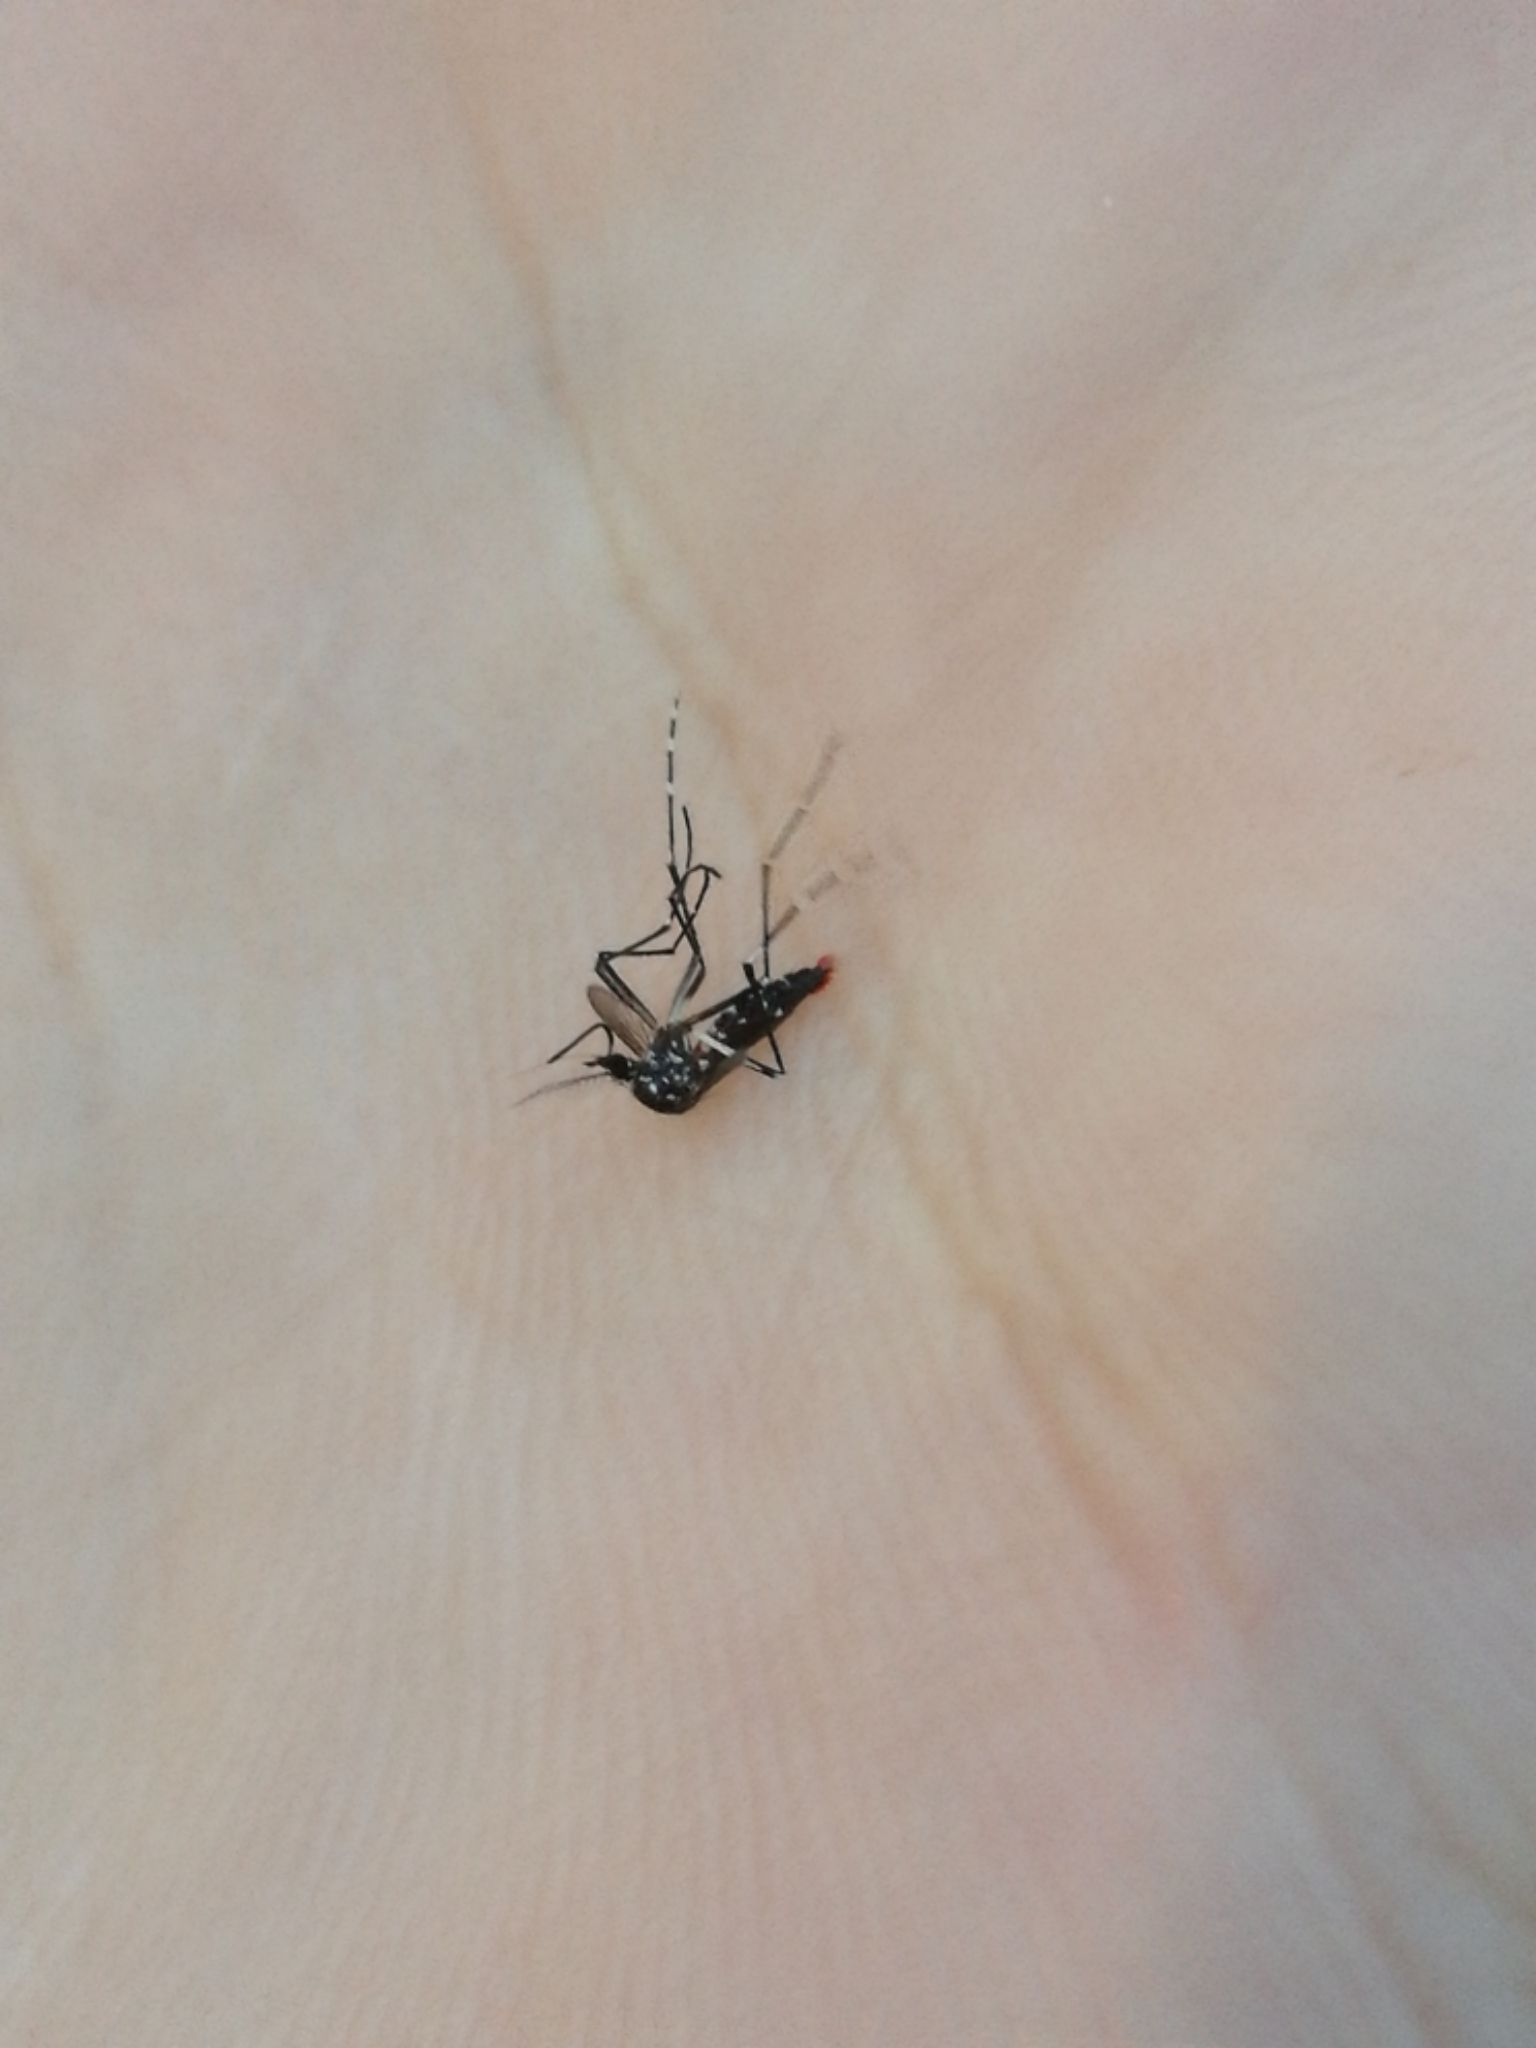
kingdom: Animalia
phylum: Arthropoda
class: Insecta
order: Diptera
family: Culicidae
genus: Aedes
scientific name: Aedes albopictus
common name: Tiger mosquito
